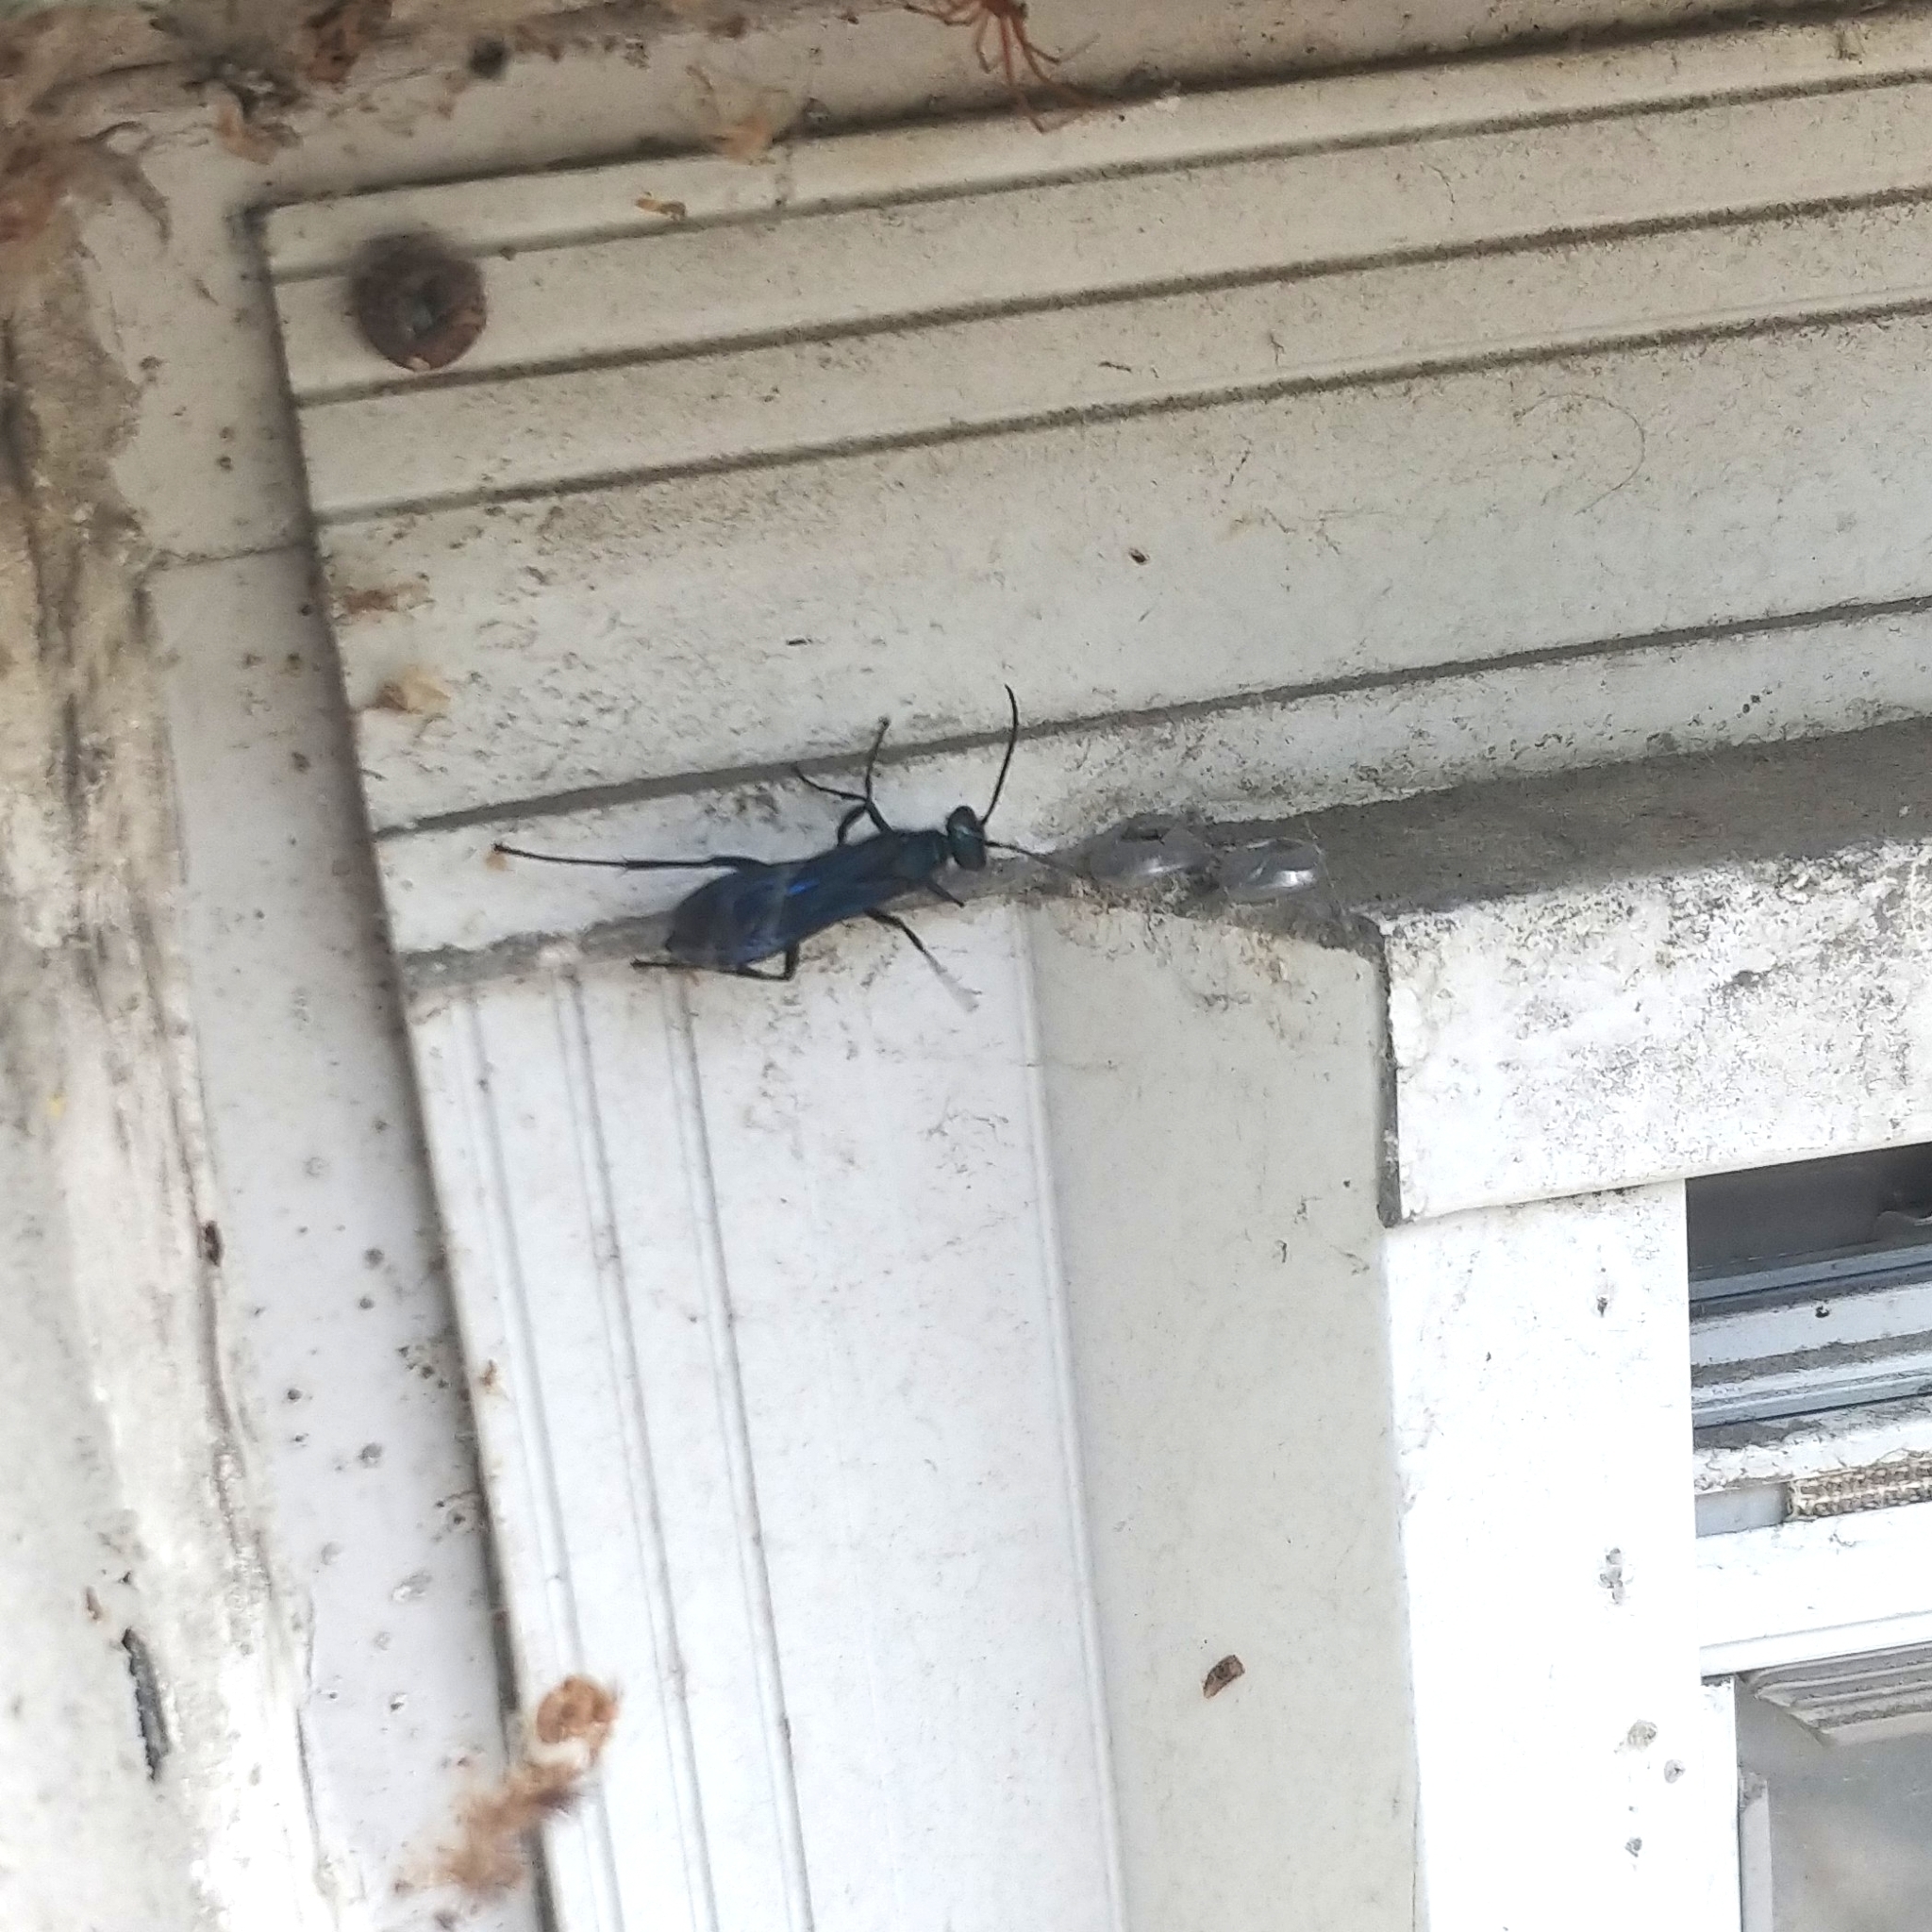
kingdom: Animalia
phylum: Arthropoda
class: Insecta
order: Hymenoptera
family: Sphecidae
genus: Chalybion
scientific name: Chalybion californicum
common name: Mud dauber
